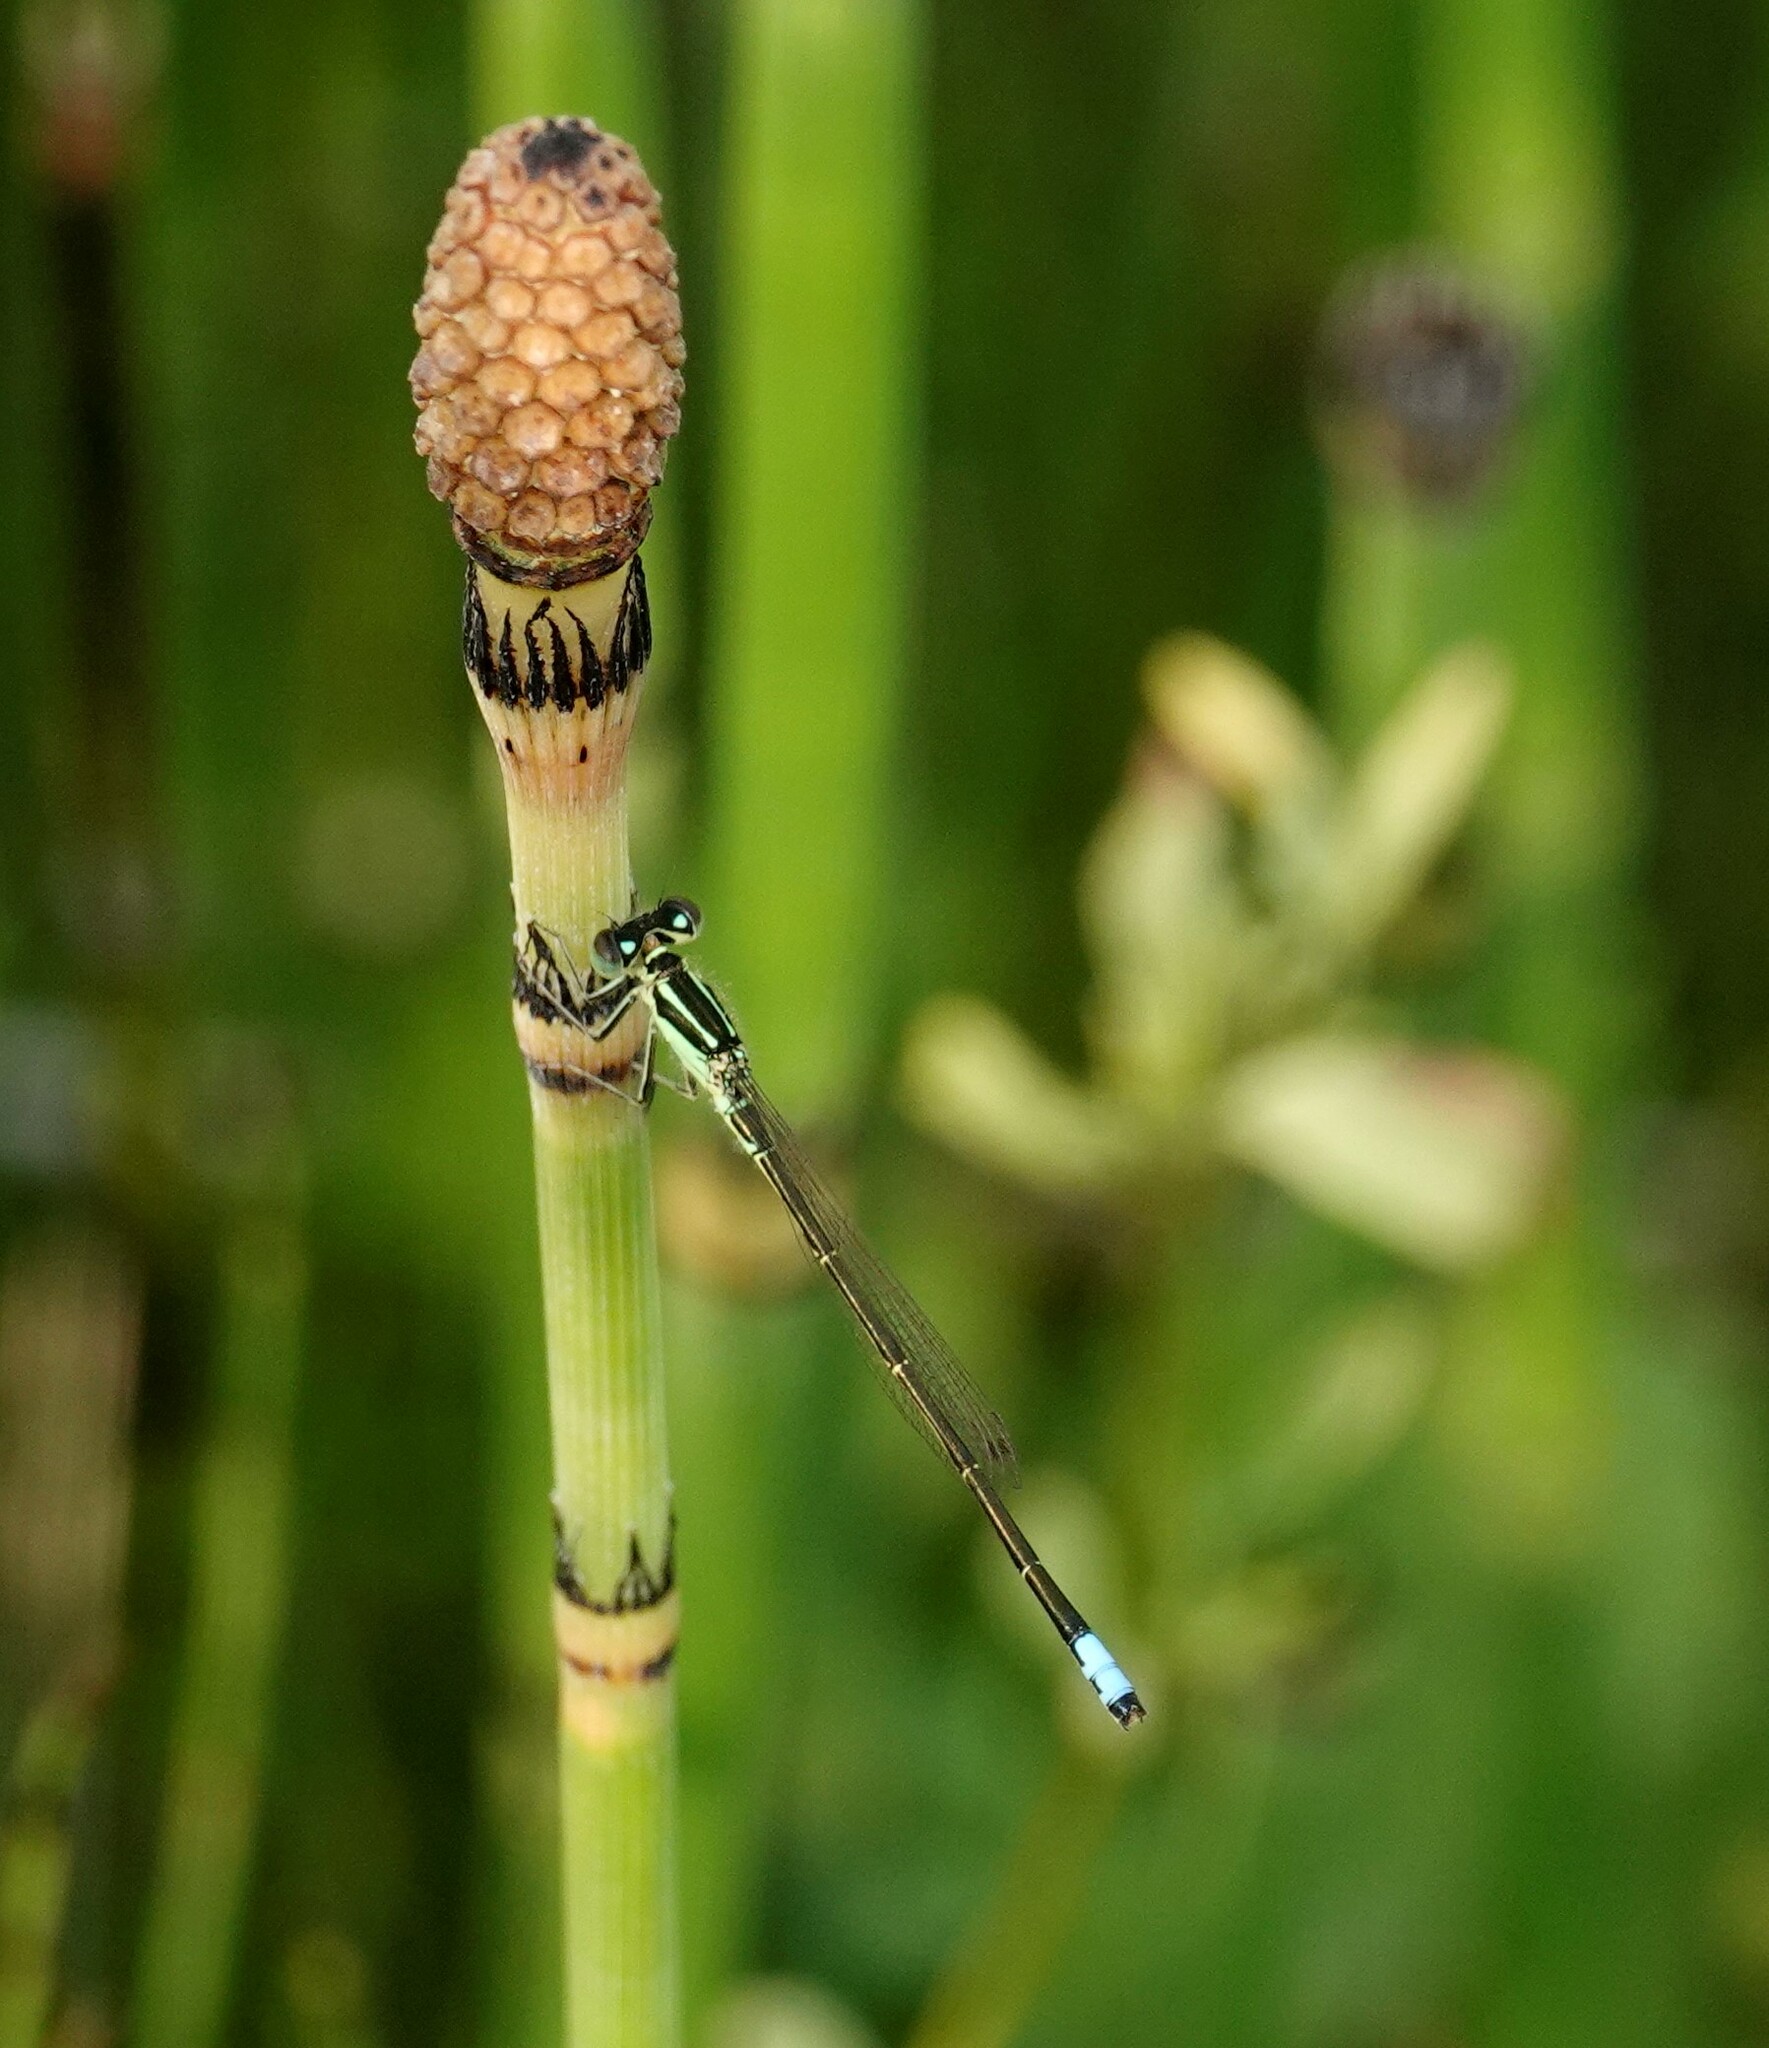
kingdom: Animalia
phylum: Arthropoda
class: Insecta
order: Odonata
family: Coenagrionidae
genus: Ischnura
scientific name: Ischnura verticalis
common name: Eastern forktail
